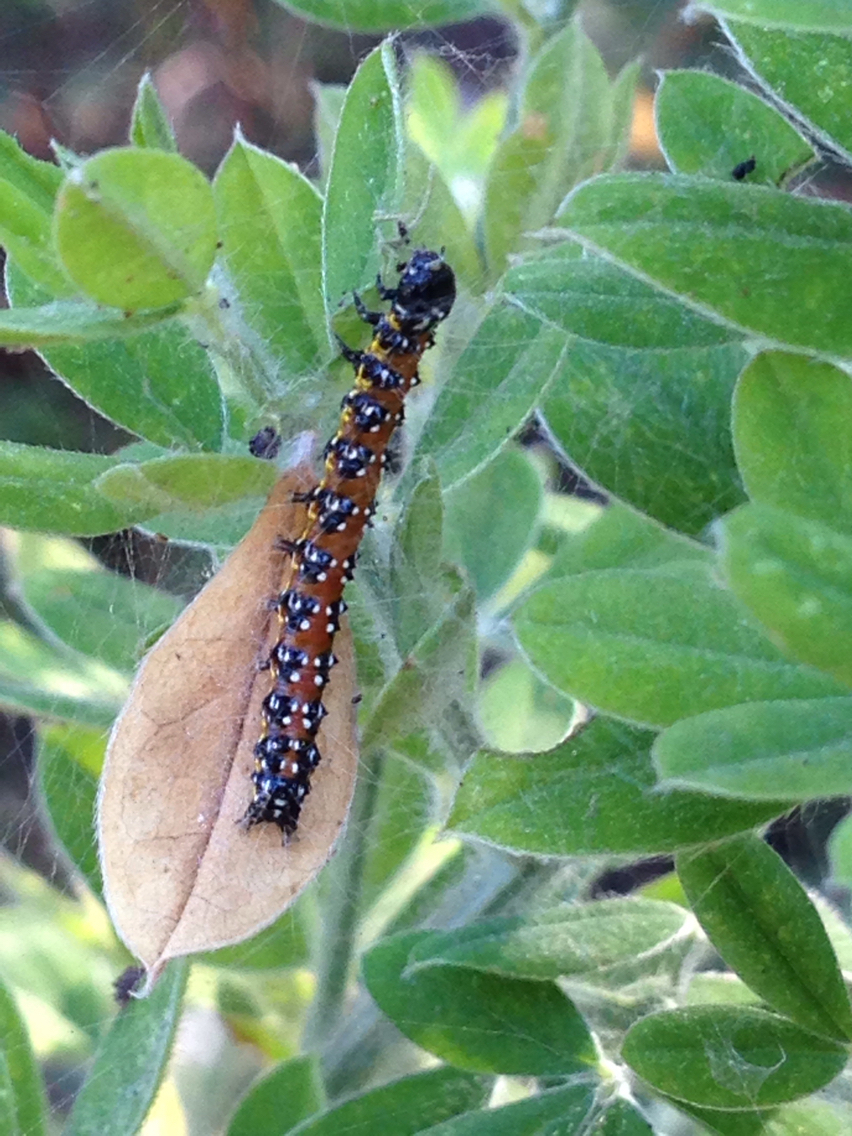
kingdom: Animalia
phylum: Arthropoda
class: Insecta
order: Lepidoptera
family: Crambidae
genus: Uresiphita
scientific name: Uresiphita reversalis
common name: Genista broom moth
